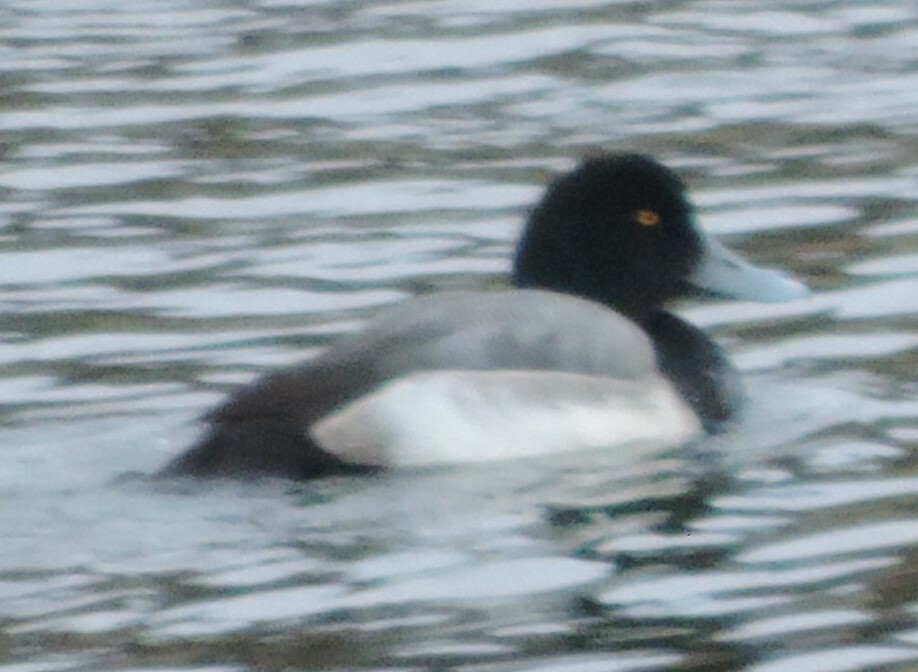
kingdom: Animalia
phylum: Chordata
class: Aves
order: Anseriformes
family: Anatidae
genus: Aythya
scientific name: Aythya marila
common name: Greater scaup
